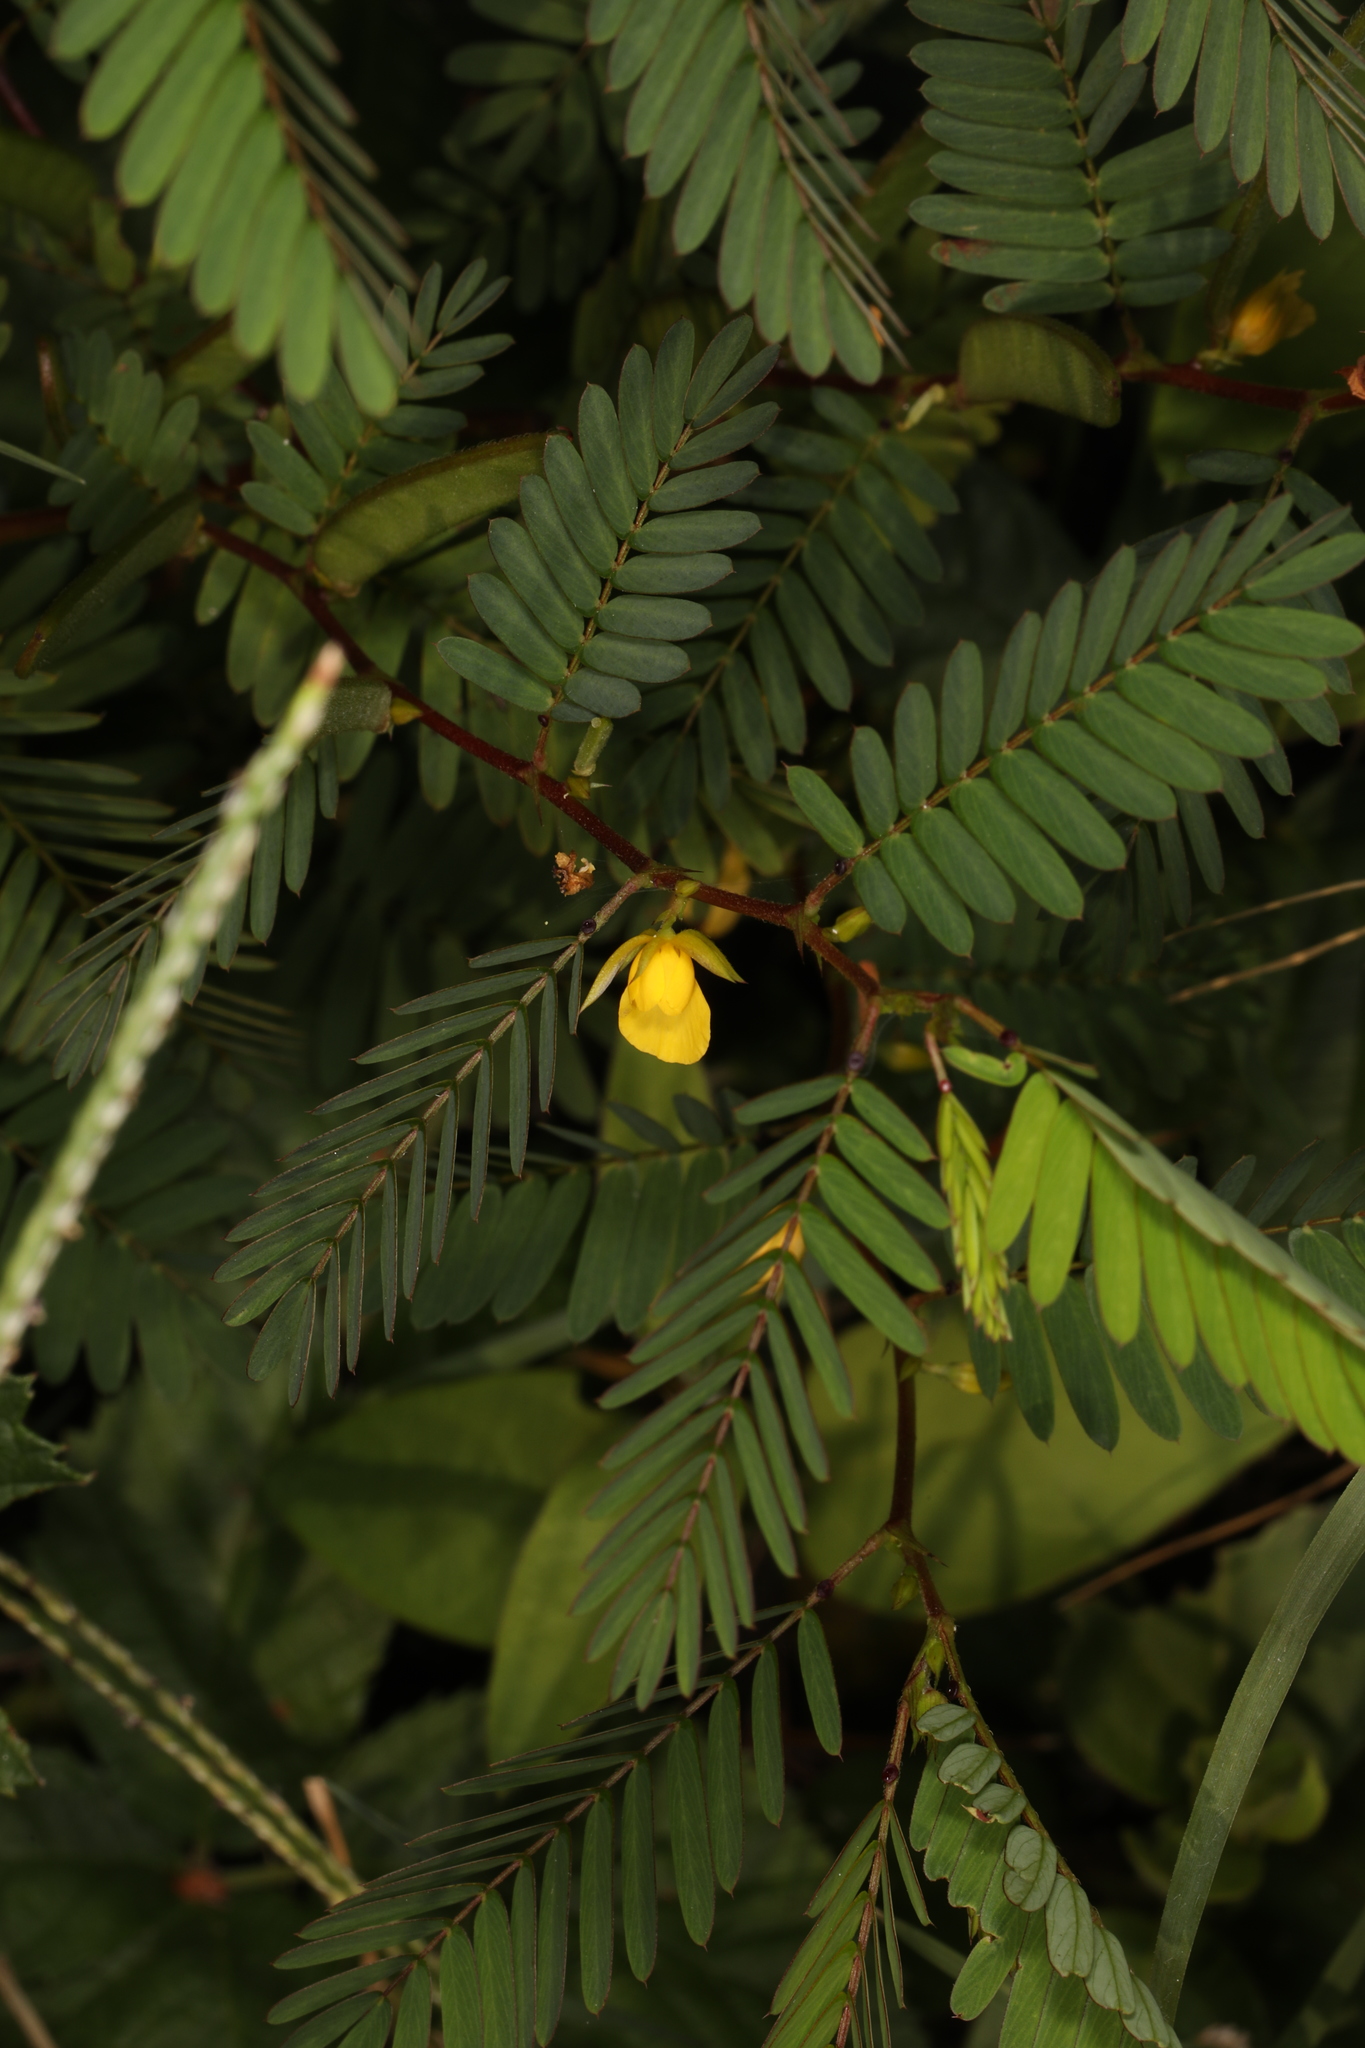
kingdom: Plantae
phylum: Tracheophyta
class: Magnoliopsida
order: Fabales
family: Fabaceae
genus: Chamaecrista
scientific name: Chamaecrista nictitans
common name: Sensitive cassia
